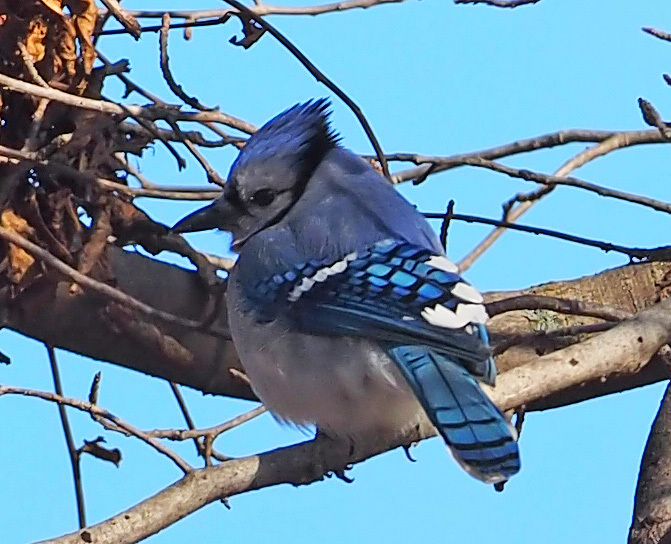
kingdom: Animalia
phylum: Chordata
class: Aves
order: Passeriformes
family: Corvidae
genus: Cyanocitta
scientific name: Cyanocitta cristata
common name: Blue jay
